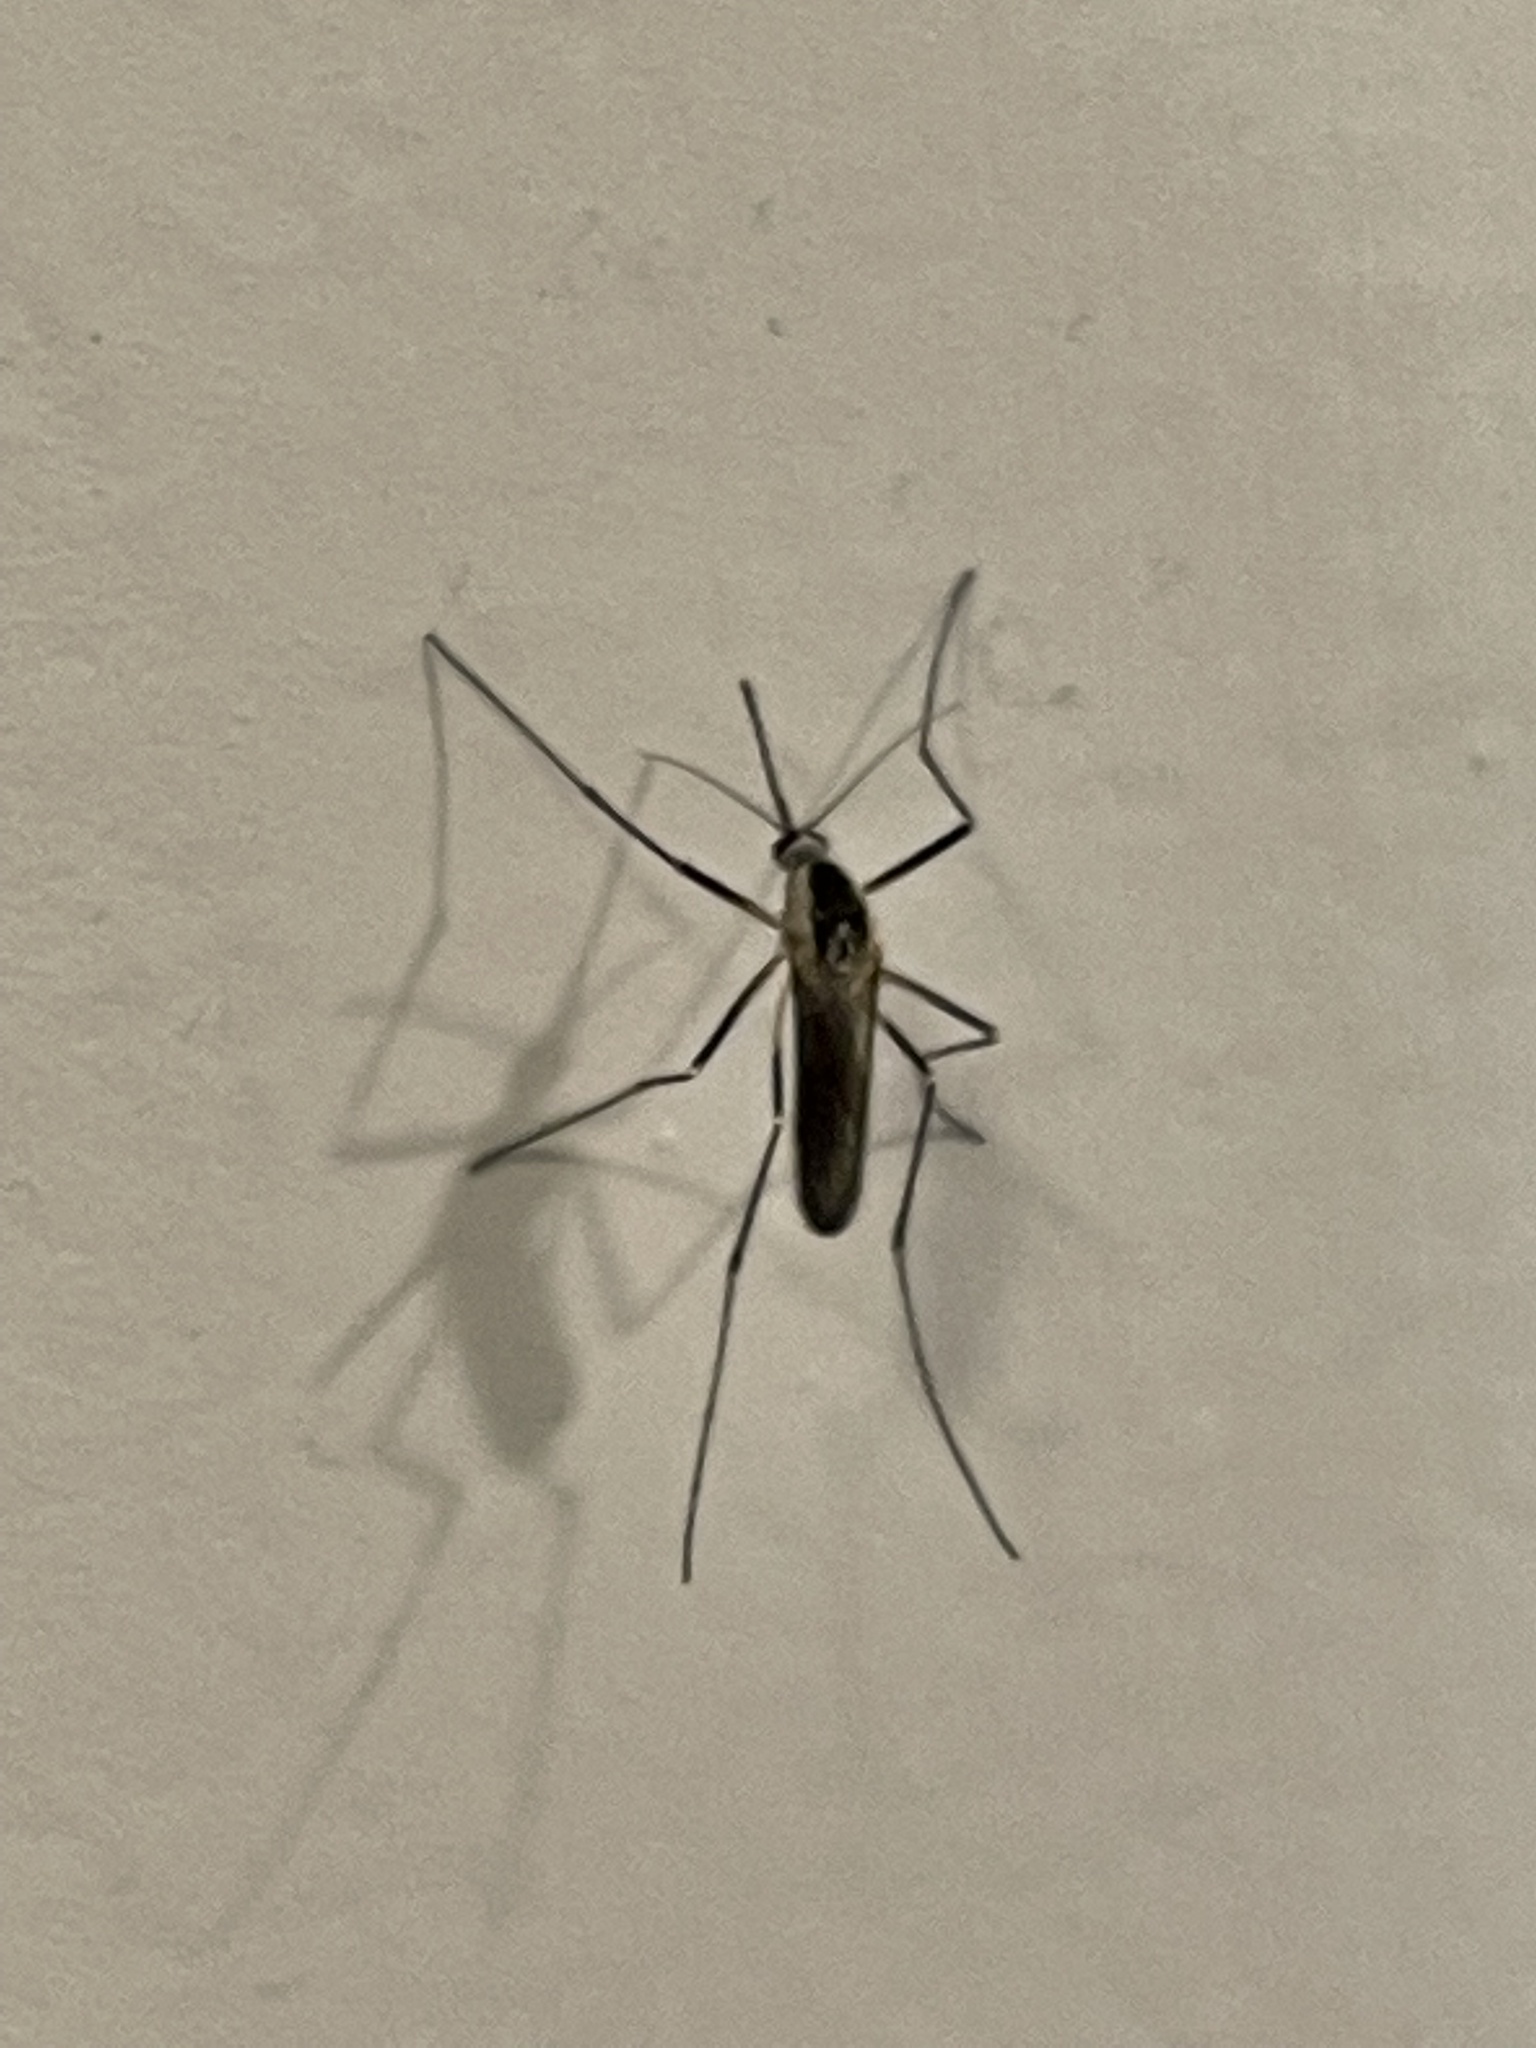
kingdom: Animalia
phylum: Arthropoda
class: Insecta
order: Diptera
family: Culicidae
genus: Aedes
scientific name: Aedes triseriatus
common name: Eastern treehole mosquito
